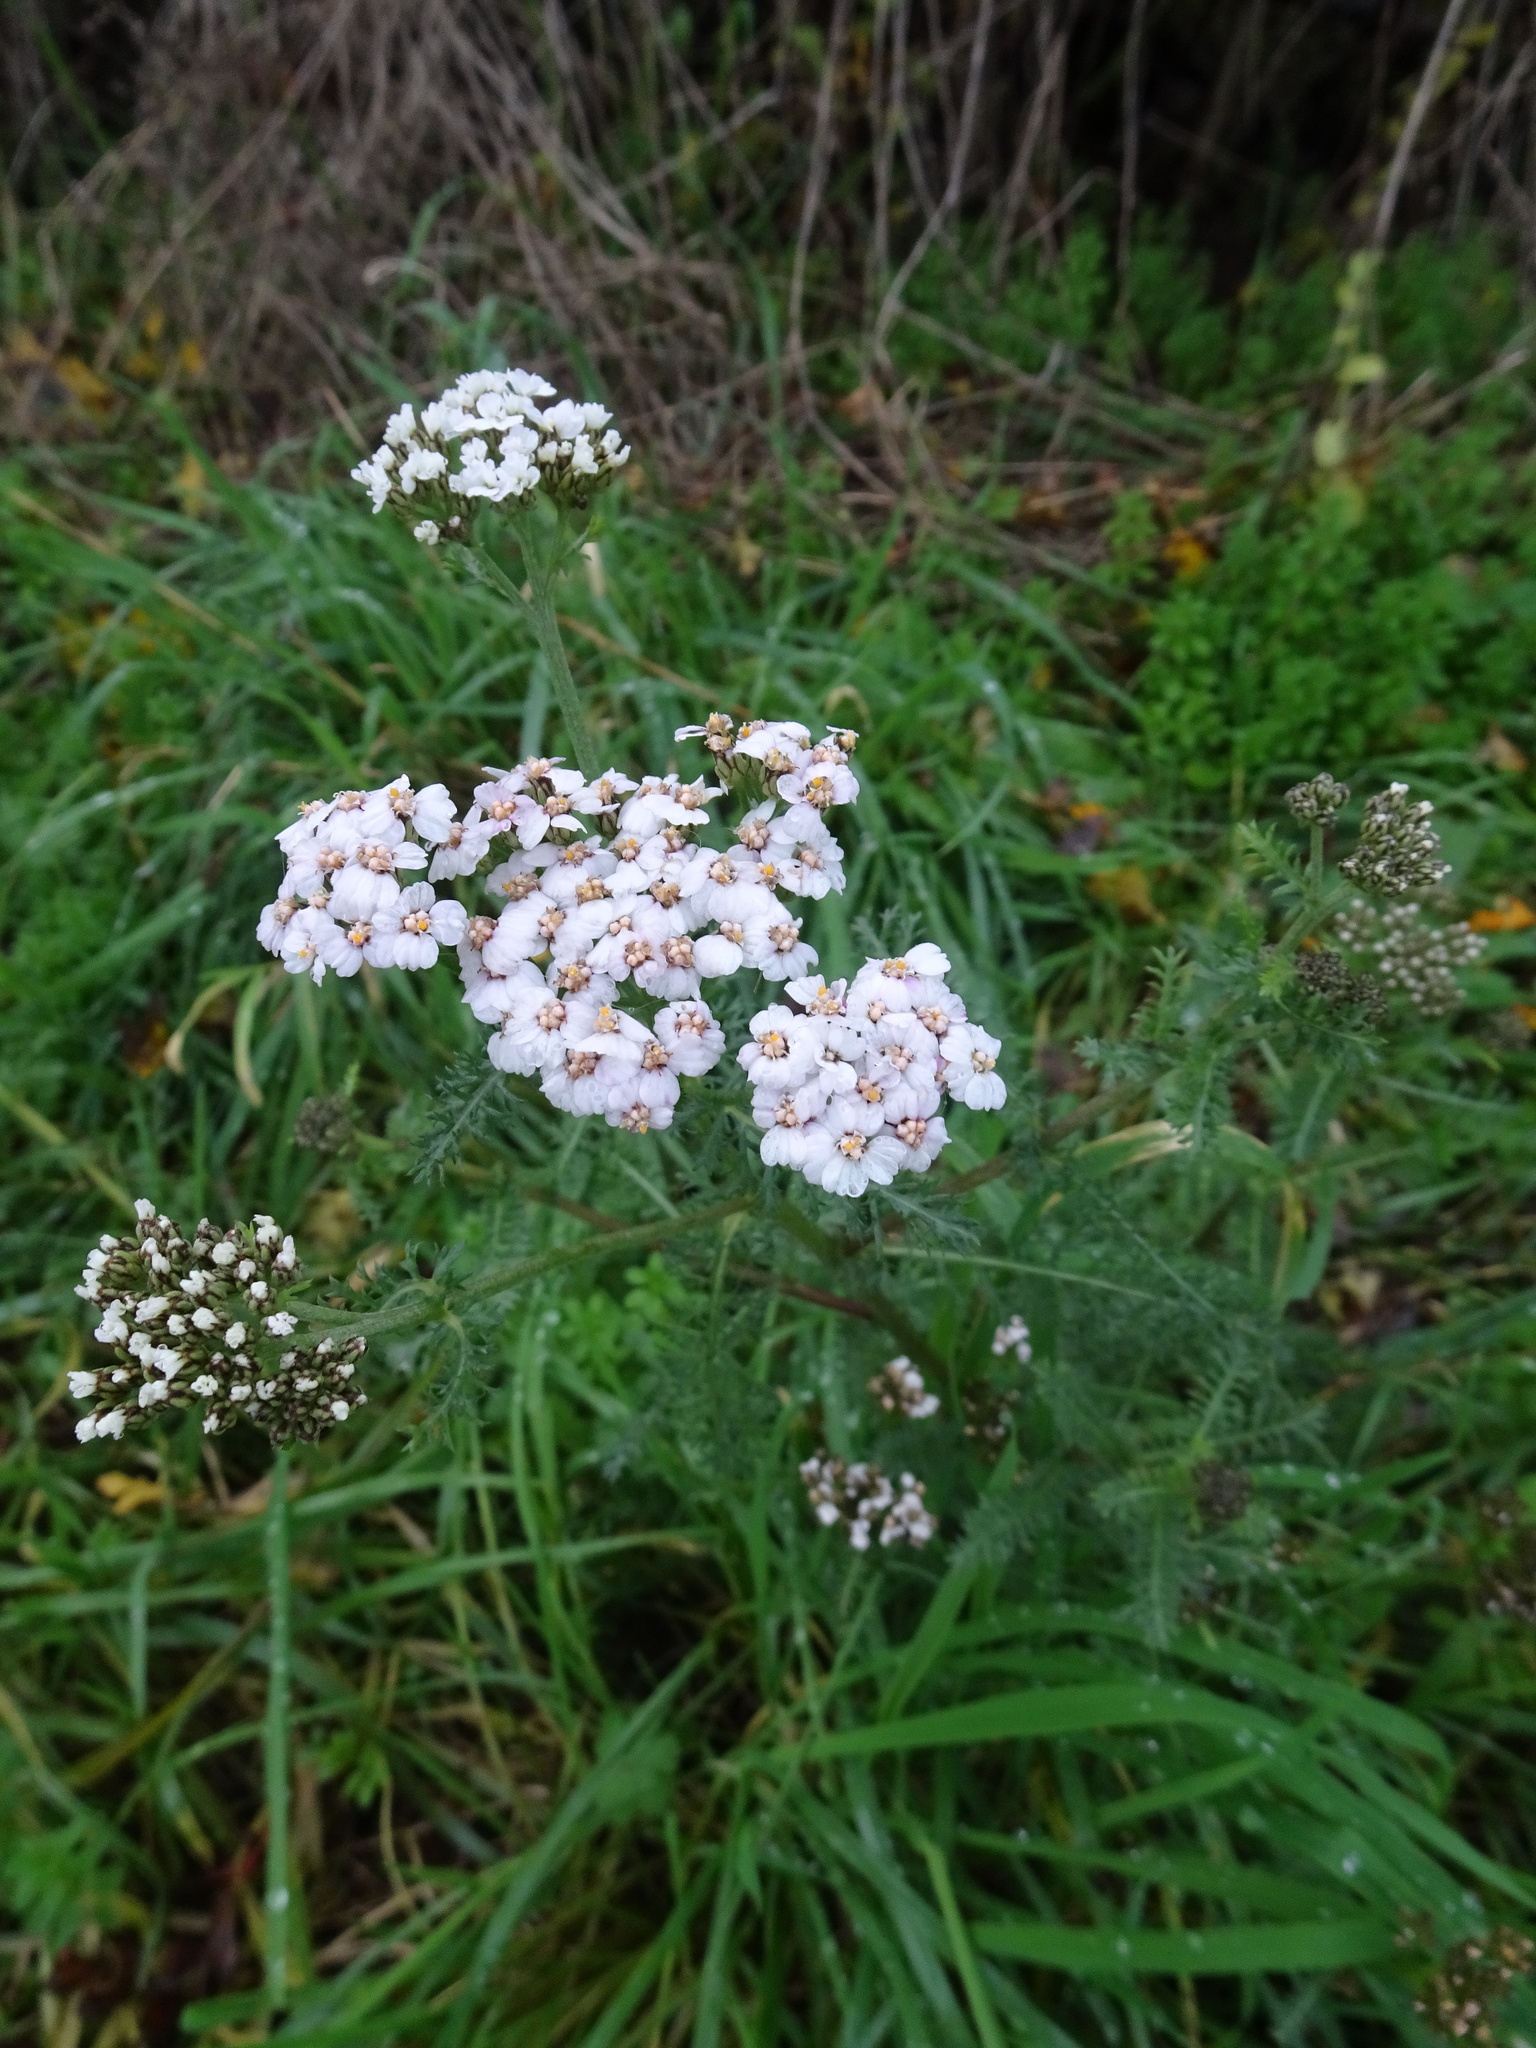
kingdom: Plantae
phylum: Tracheophyta
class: Magnoliopsida
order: Asterales
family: Asteraceae
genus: Achillea
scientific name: Achillea millefolium
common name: Yarrow
